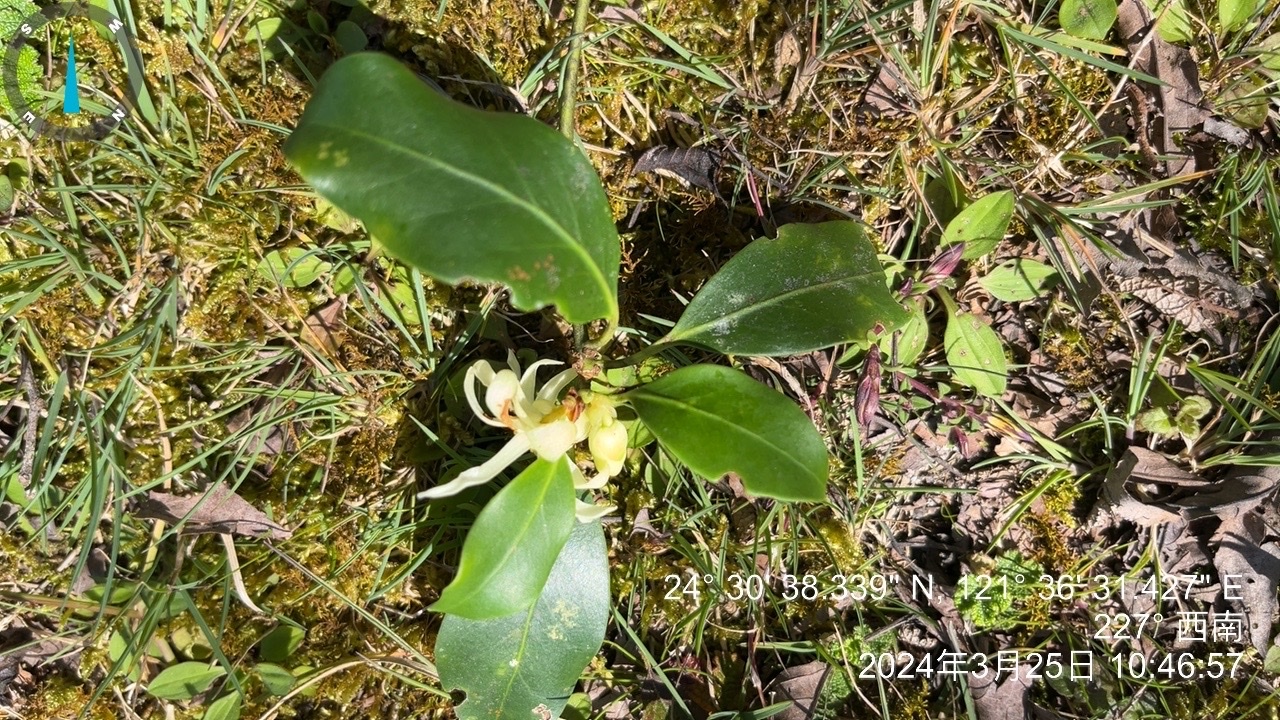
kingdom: Plantae
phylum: Tracheophyta
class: Magnoliopsida
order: Austrobaileyales
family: Schisandraceae
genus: Illicium
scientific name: Illicium anisatum
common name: Sacred anisetree
